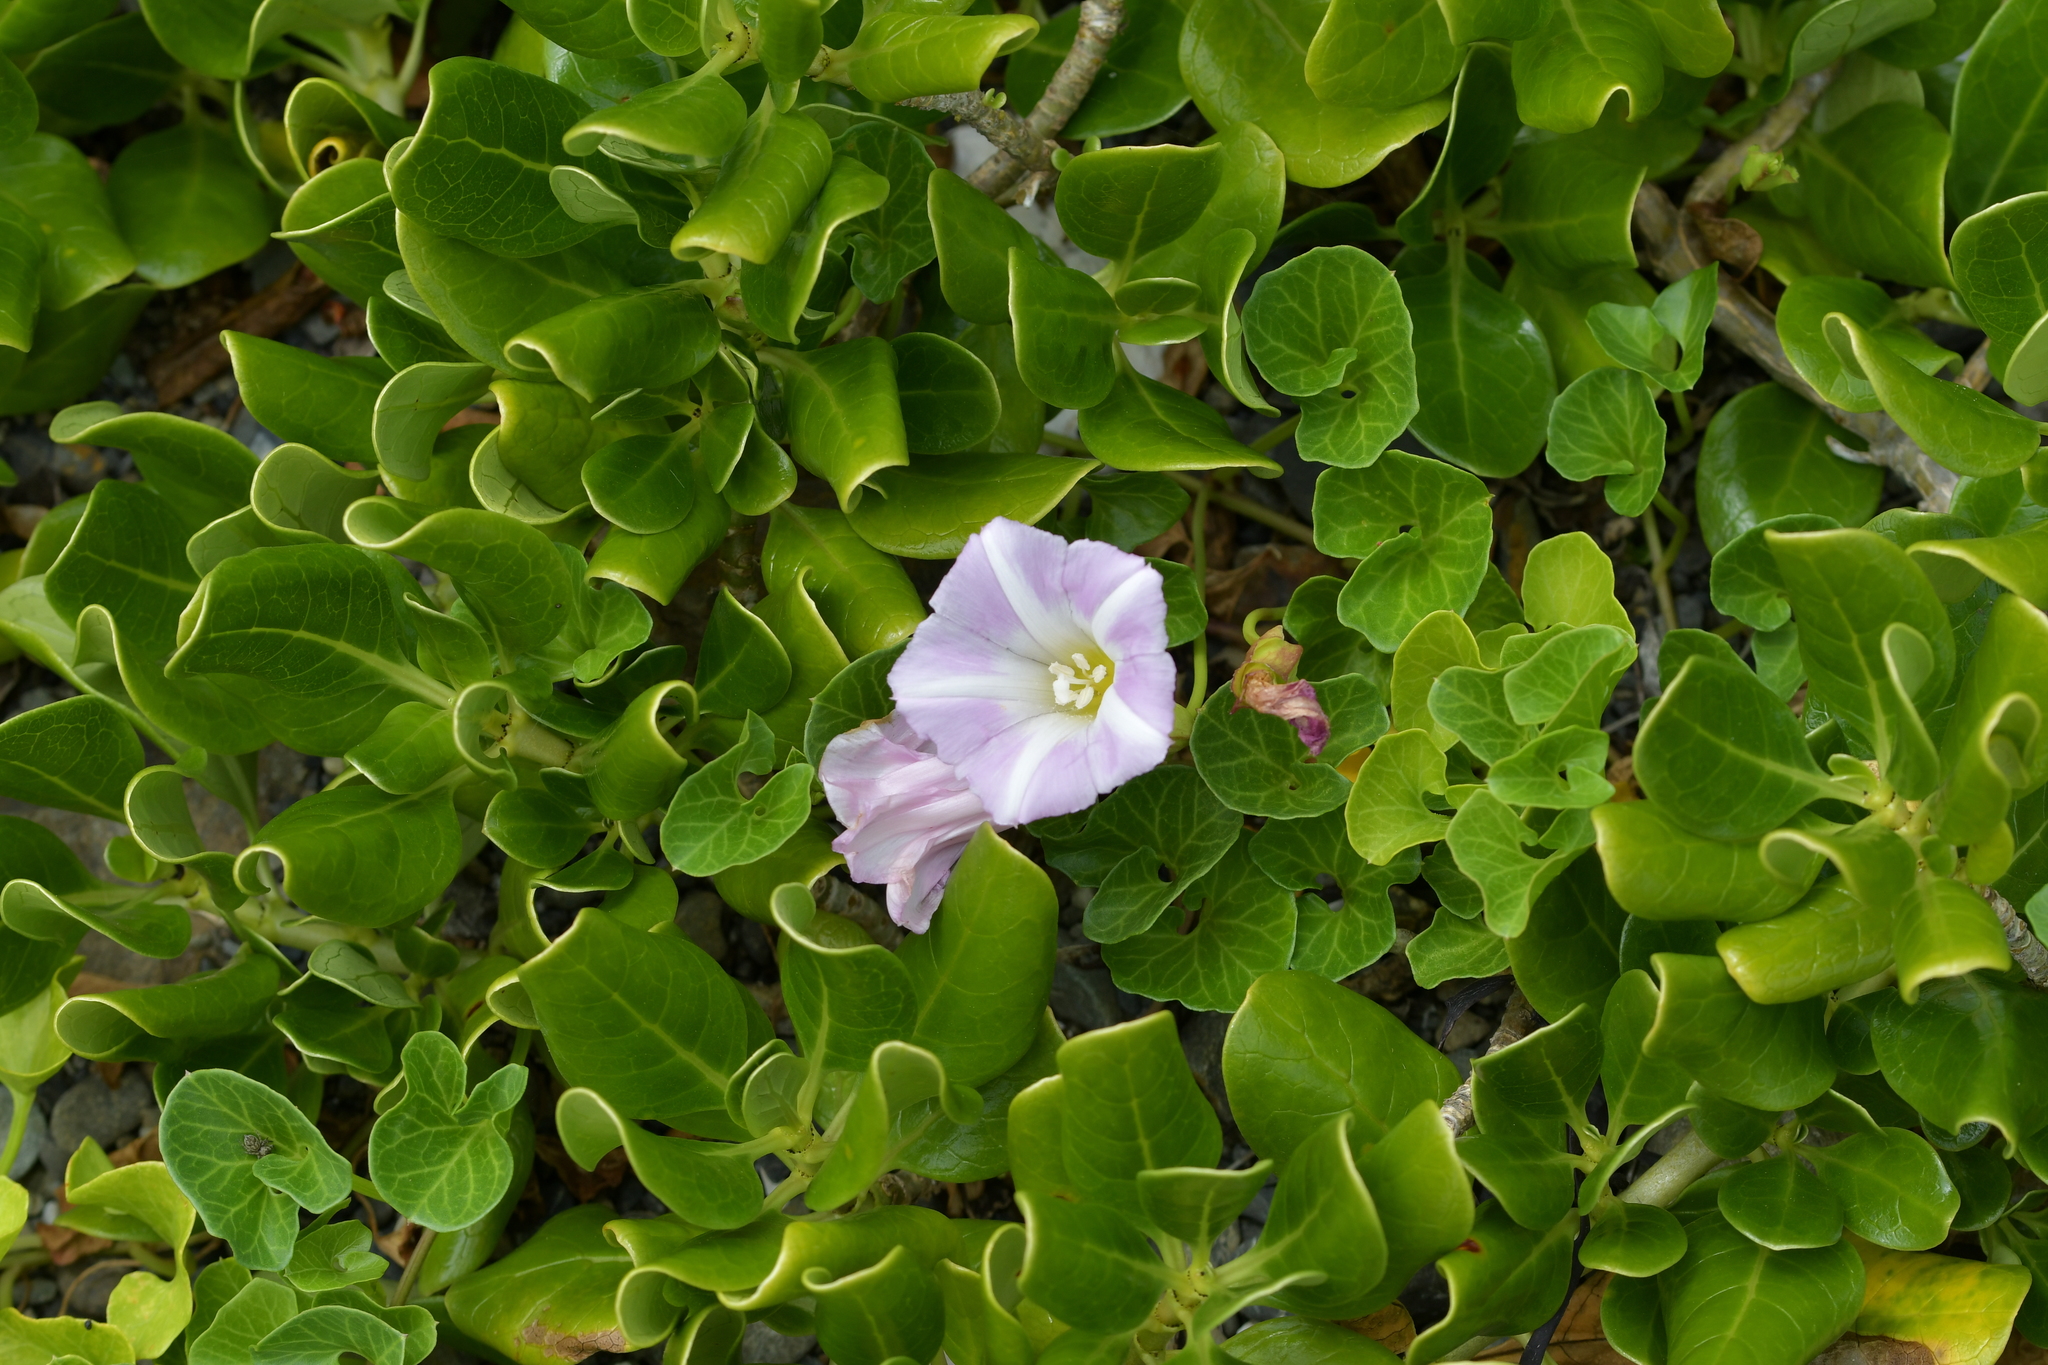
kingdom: Plantae
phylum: Tracheophyta
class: Magnoliopsida
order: Solanales
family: Convolvulaceae
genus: Calystegia
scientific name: Calystegia soldanella
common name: Sea bindweed
